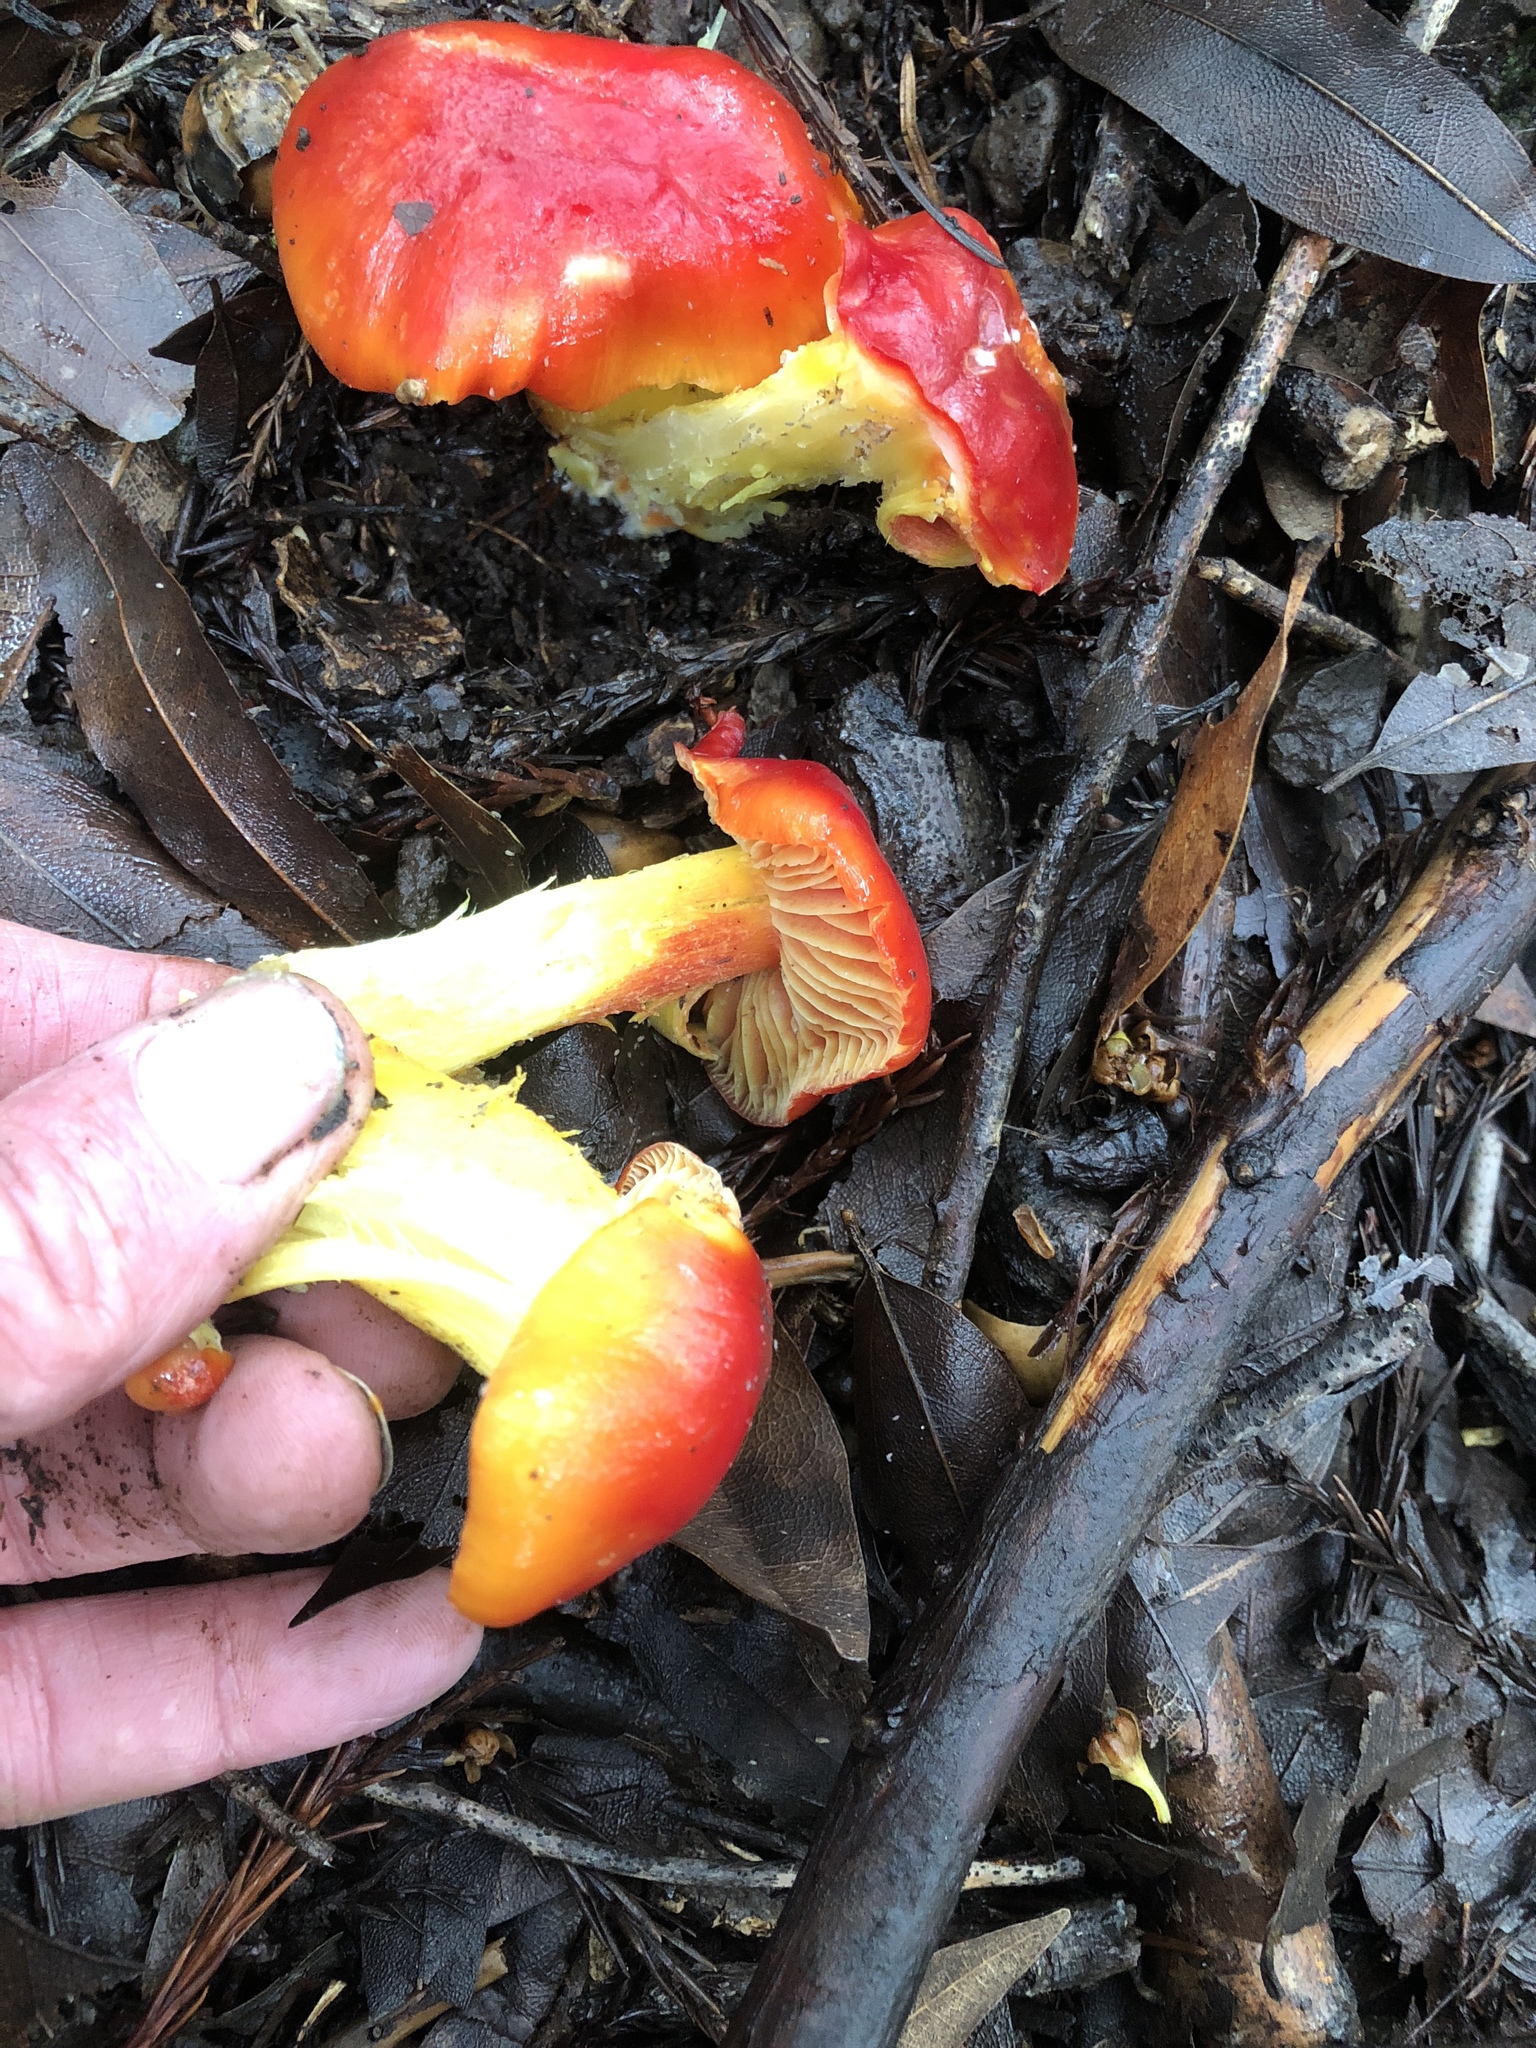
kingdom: Fungi
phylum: Basidiomycota
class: Agaricomycetes
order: Agaricales
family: Hygrophoraceae
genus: Hygrocybe
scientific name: Hygrocybe coccinea
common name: Scarlet hood
